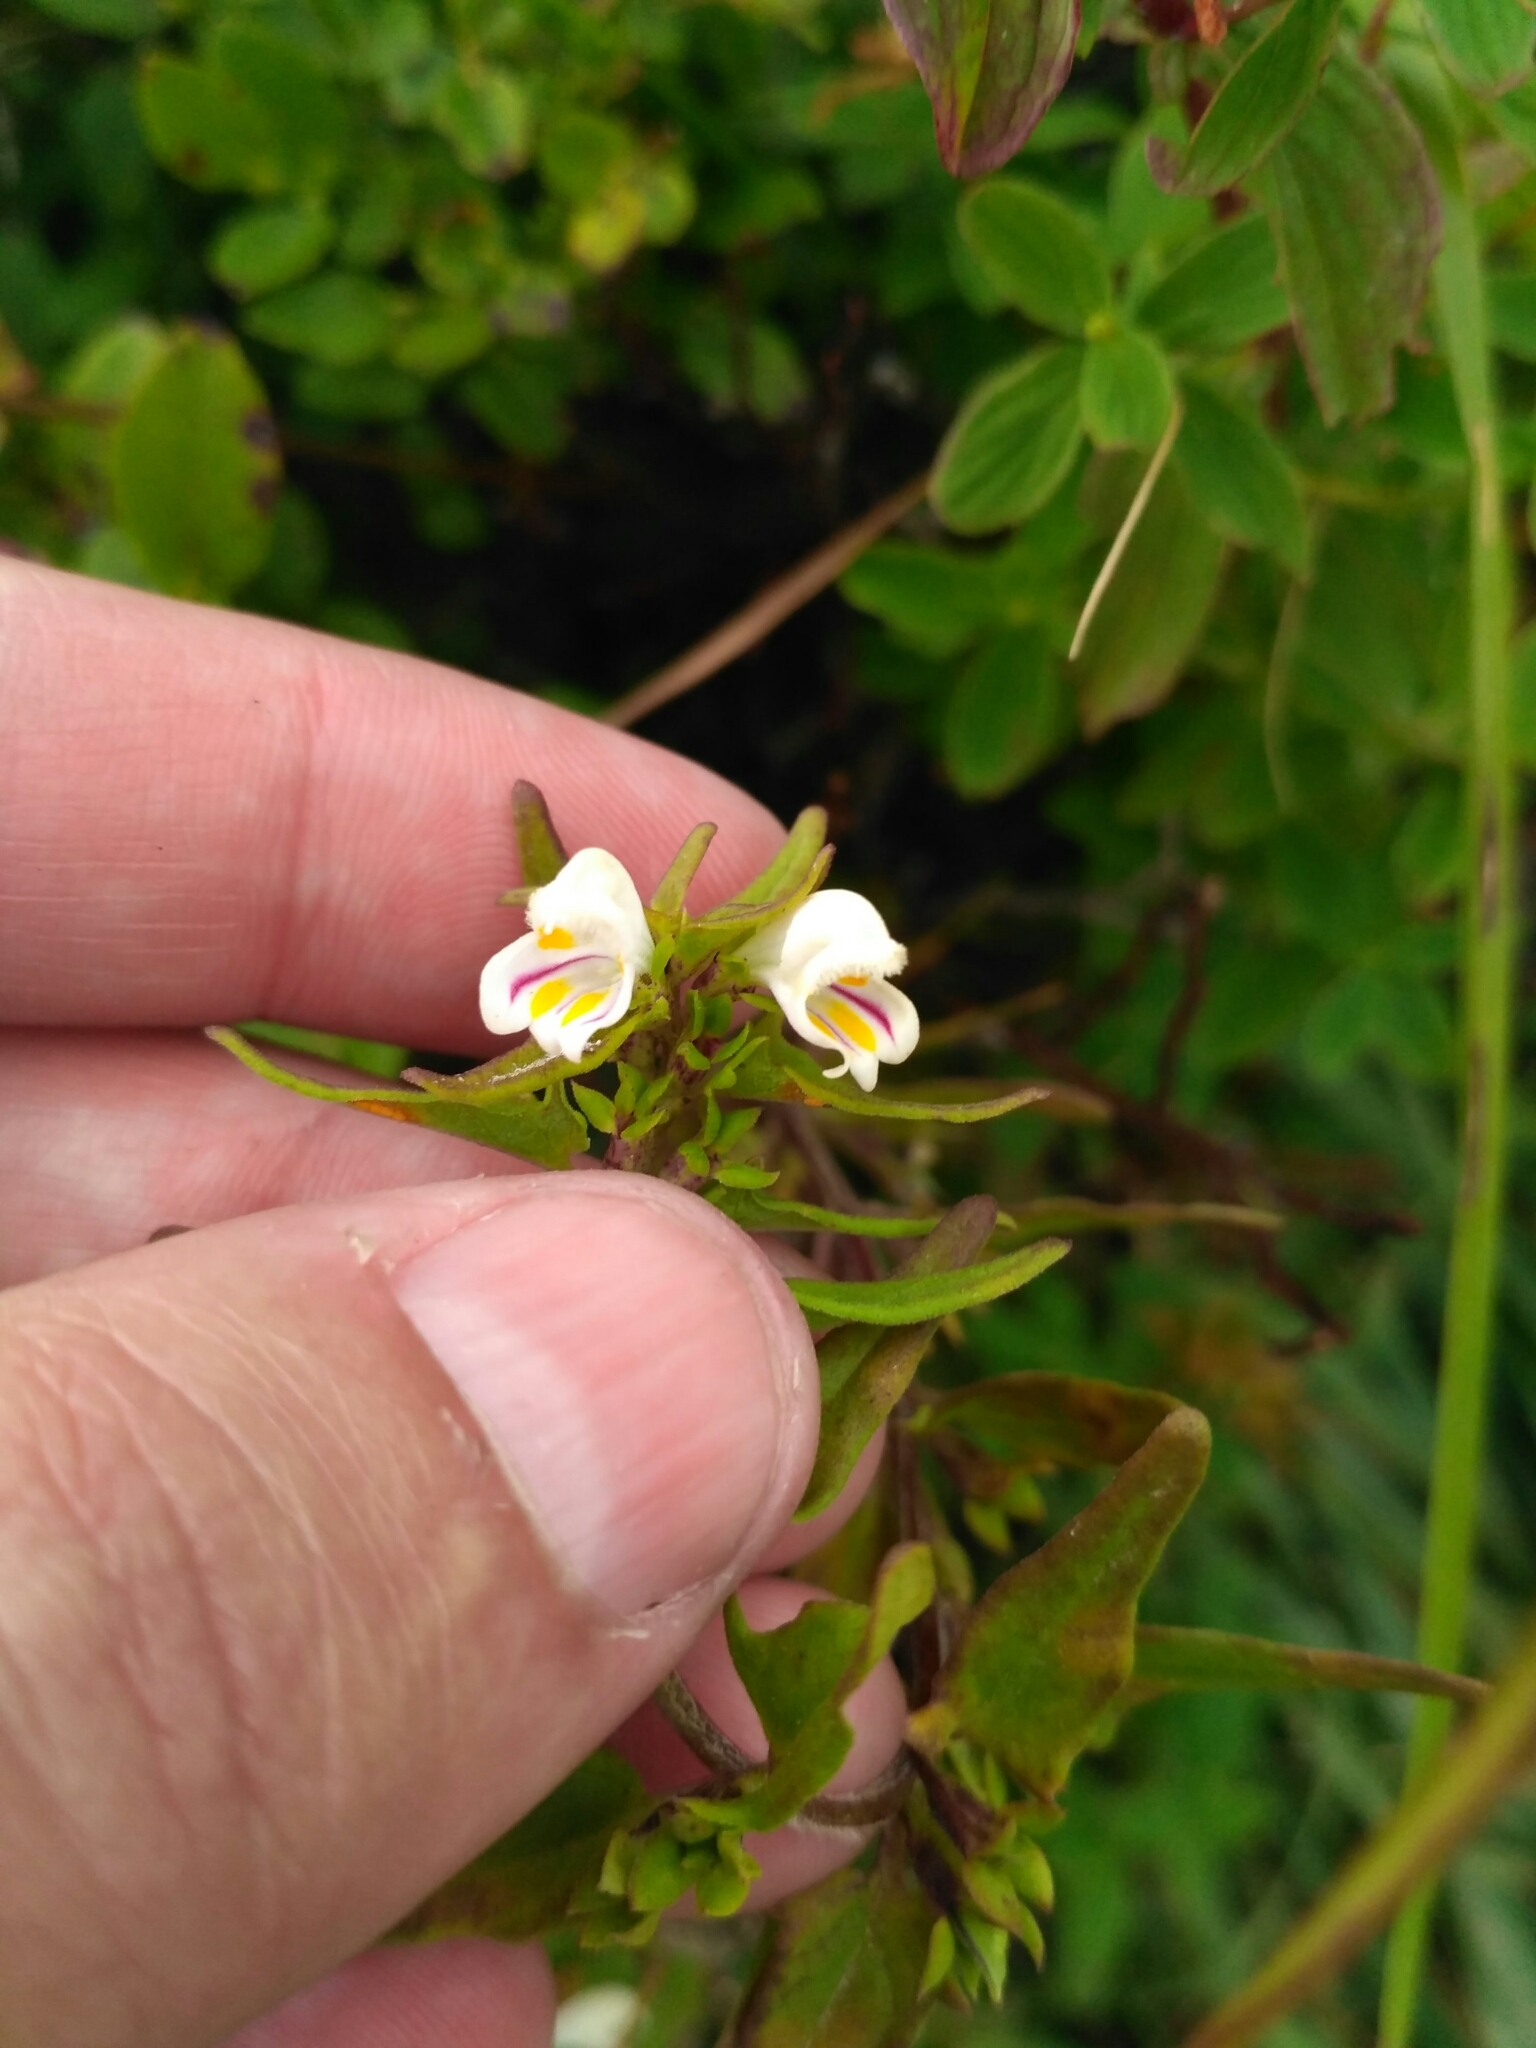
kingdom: Plantae
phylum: Tracheophyta
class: Magnoliopsida
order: Lamiales
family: Orobanchaceae
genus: Melampyrum
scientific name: Melampyrum saxosum
